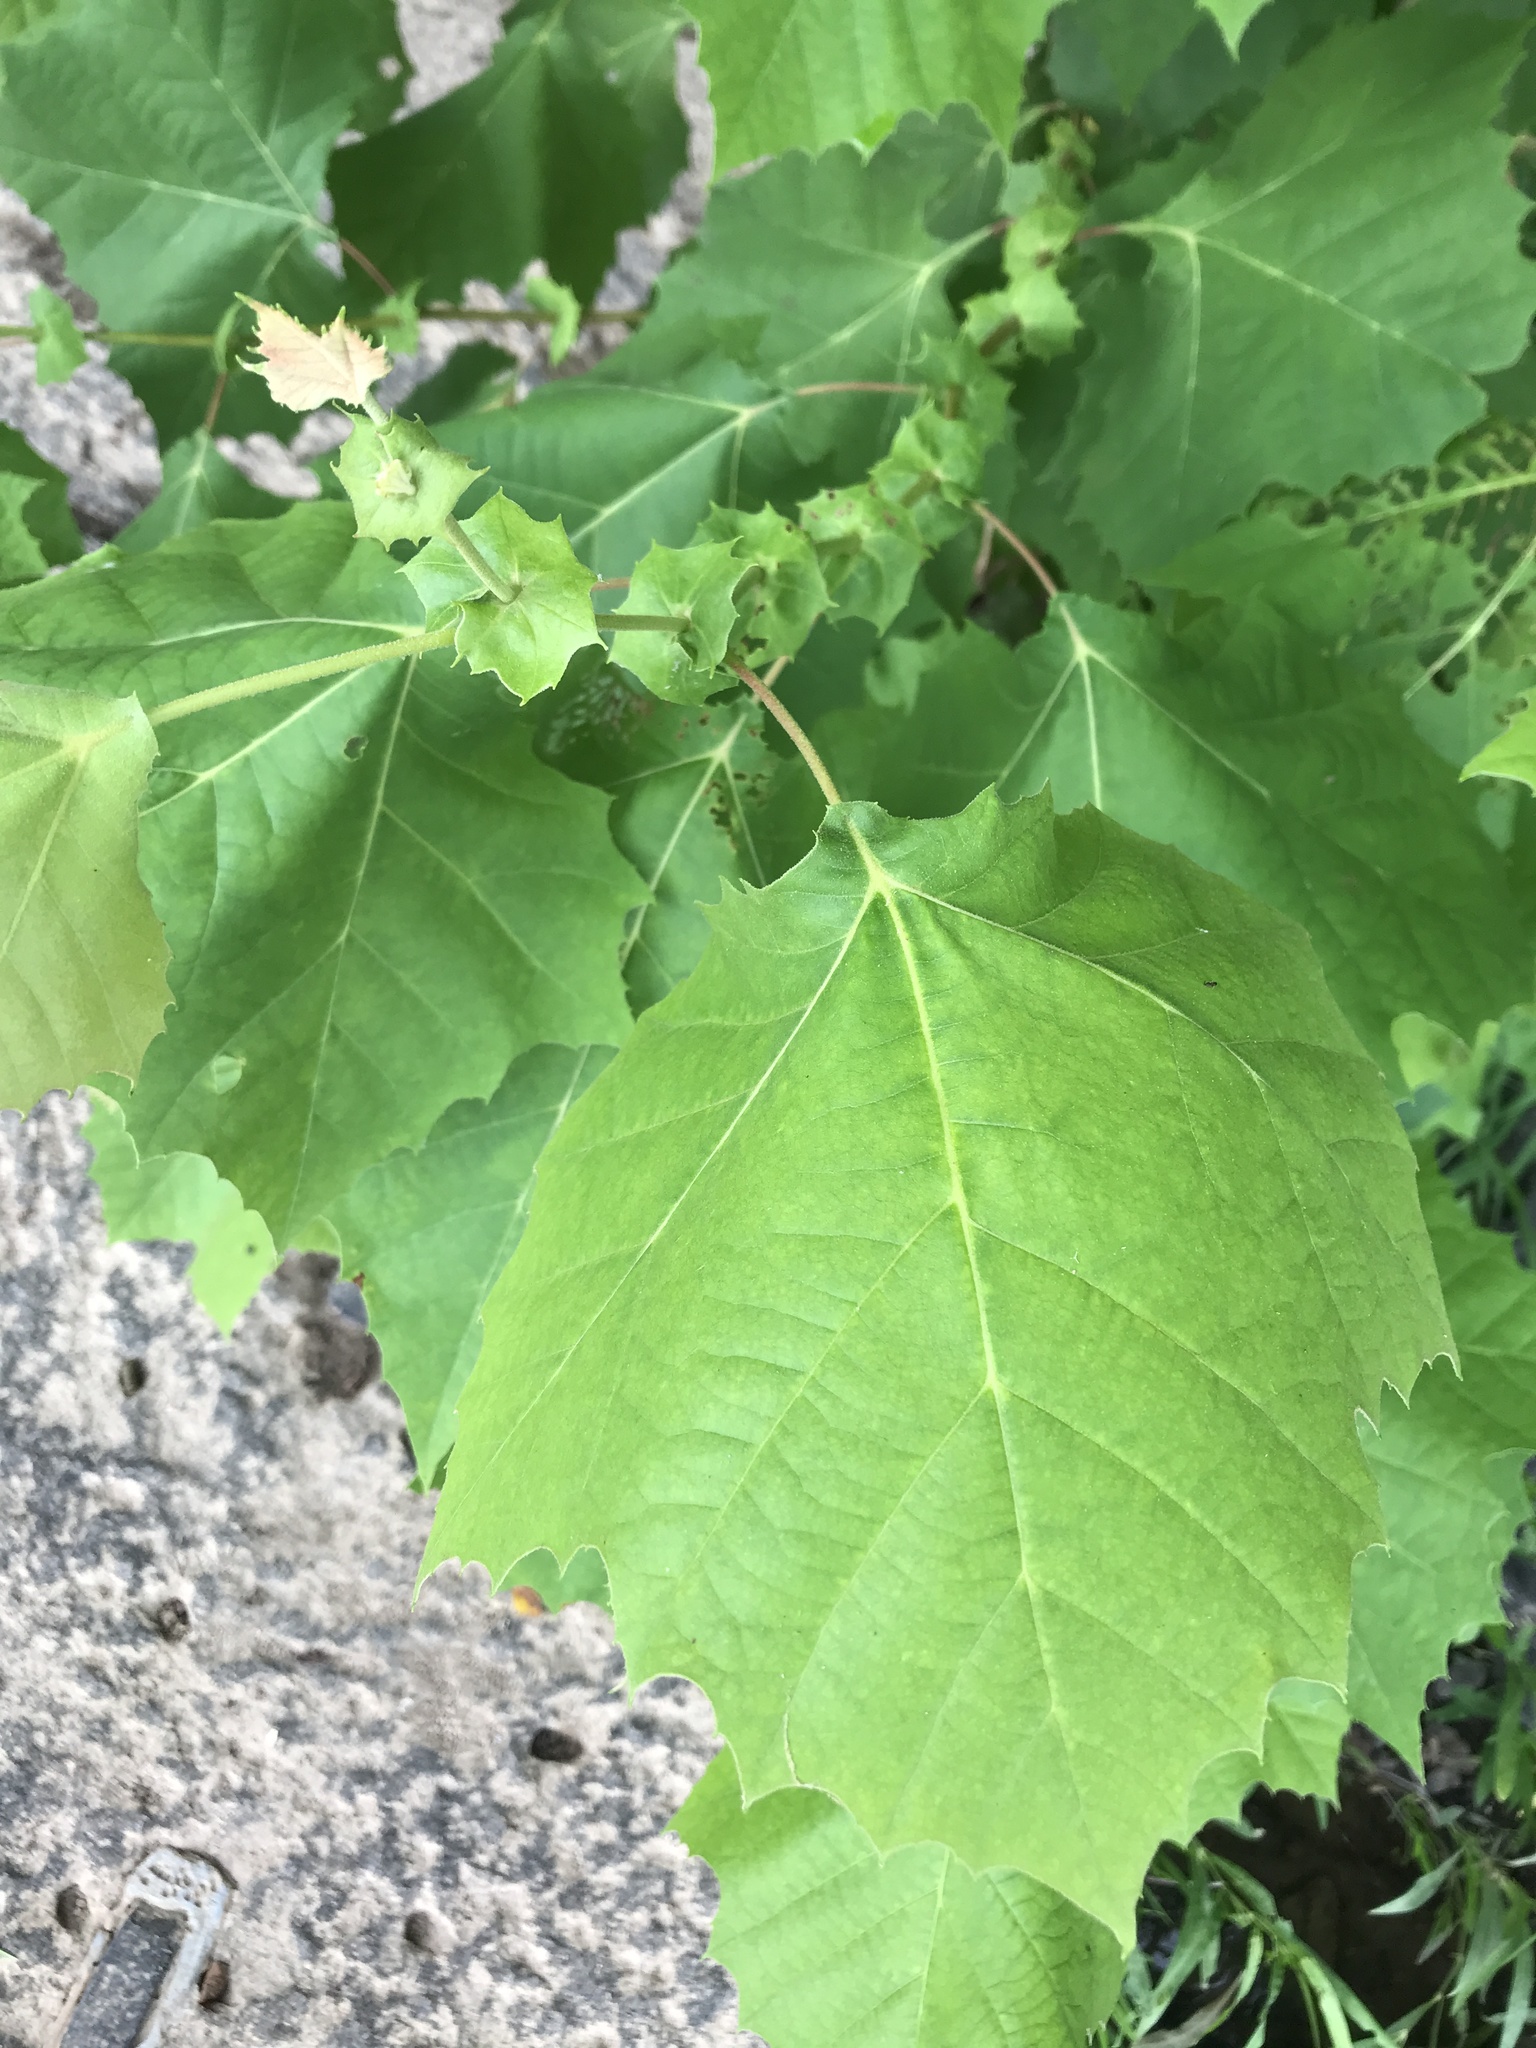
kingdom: Plantae
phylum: Tracheophyta
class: Magnoliopsida
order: Proteales
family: Platanaceae
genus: Platanus
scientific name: Platanus occidentalis
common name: American sycamore
